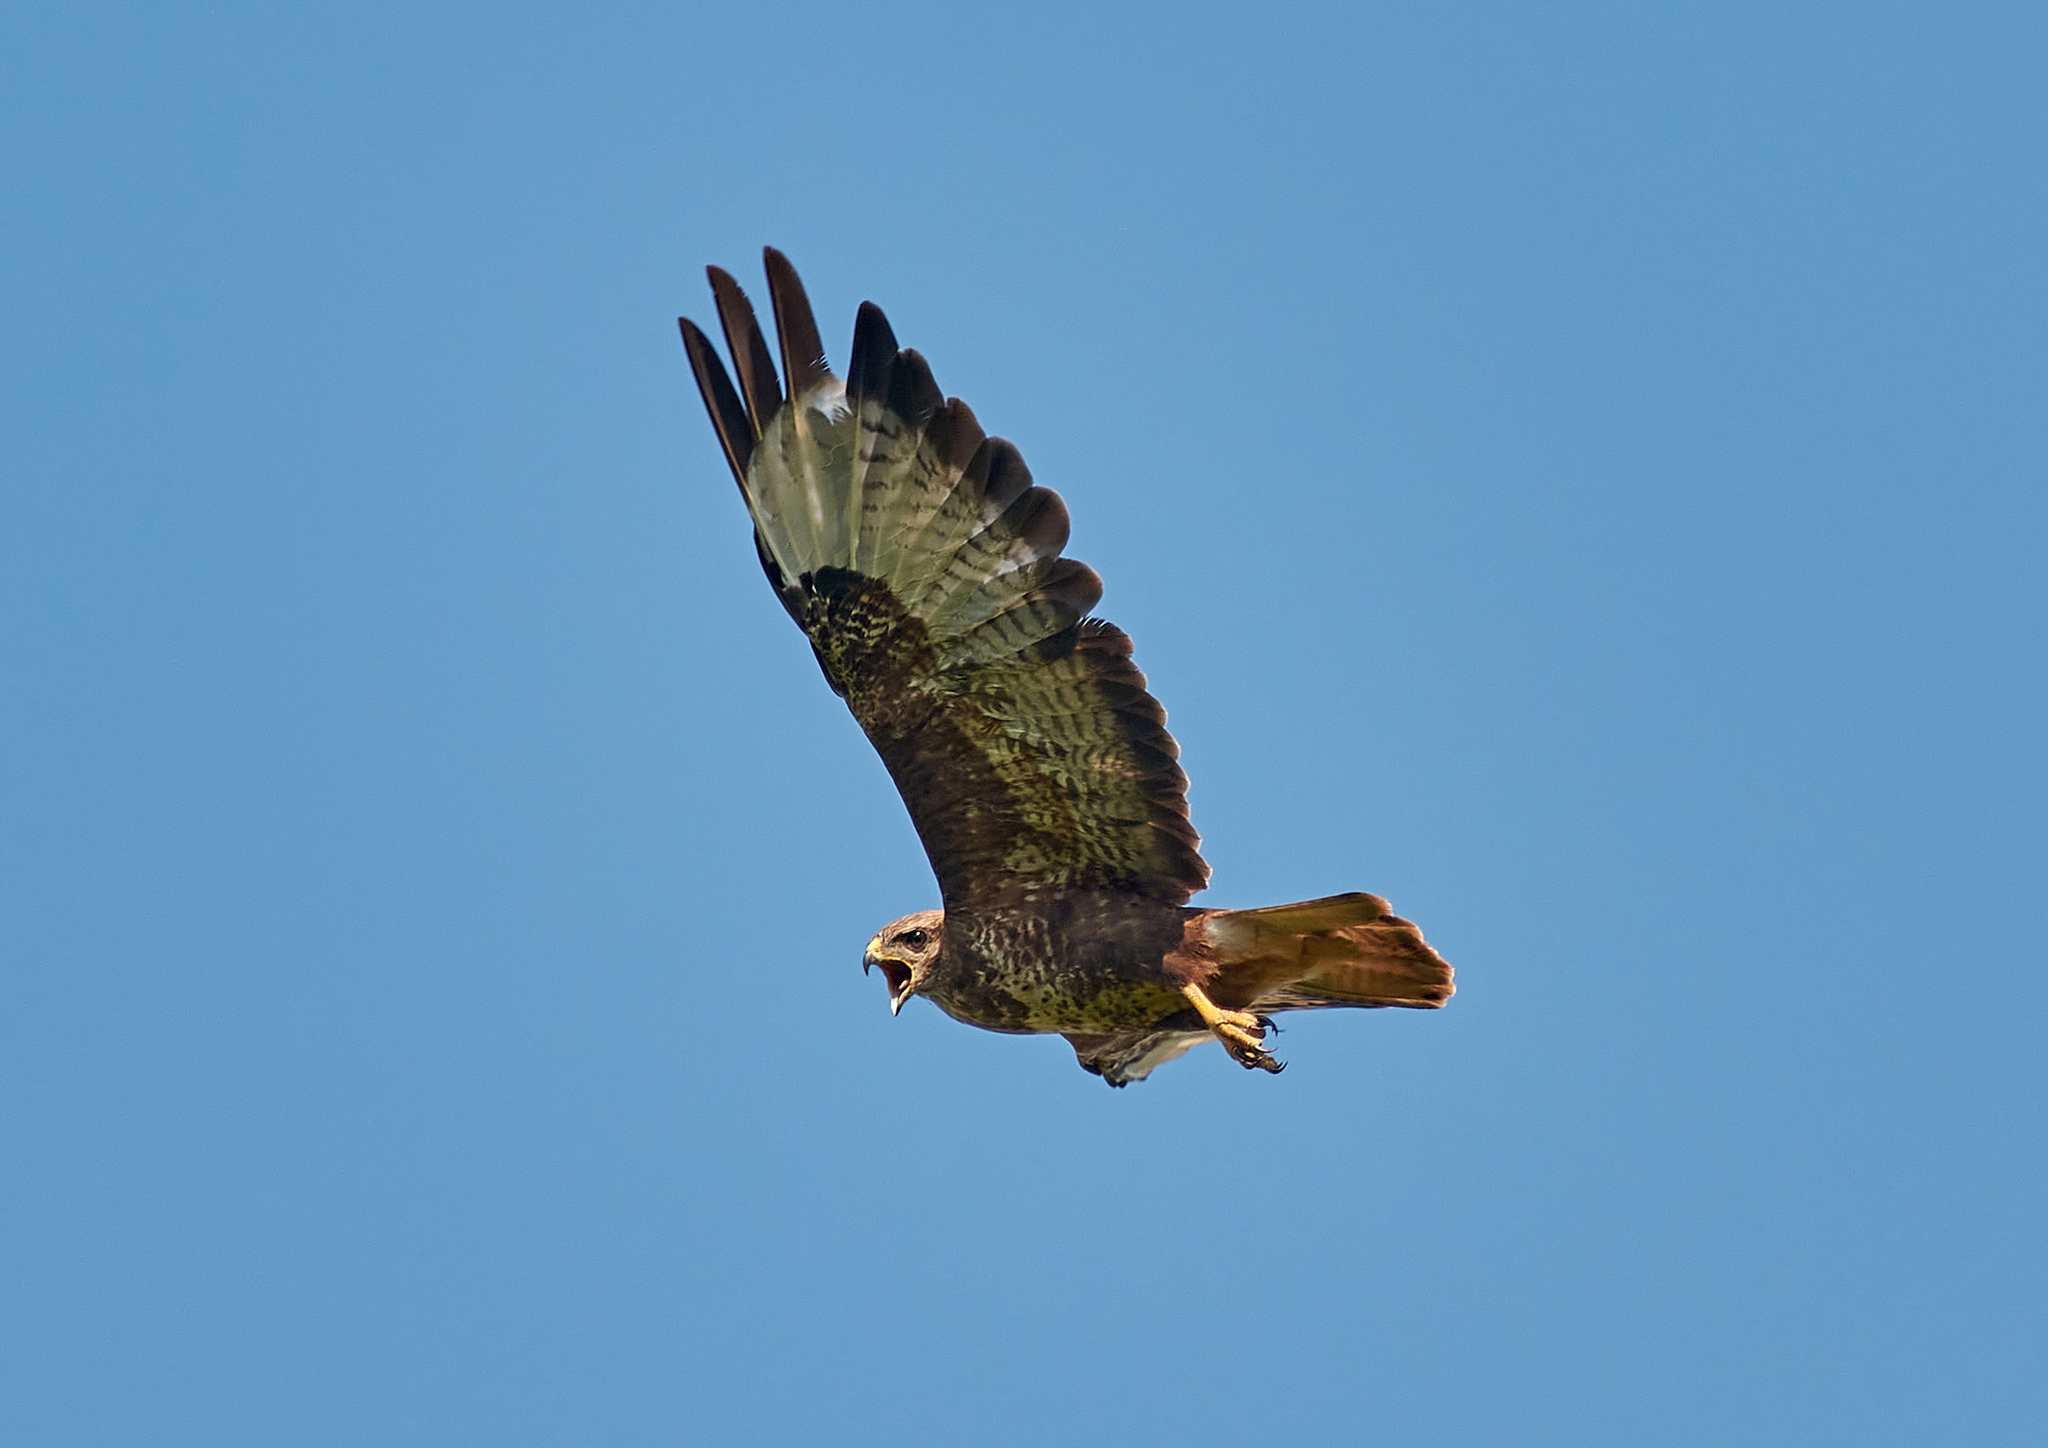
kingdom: Animalia
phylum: Chordata
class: Aves
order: Accipitriformes
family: Accipitridae
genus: Buteo
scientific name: Buteo buteo
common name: Common buzzard
